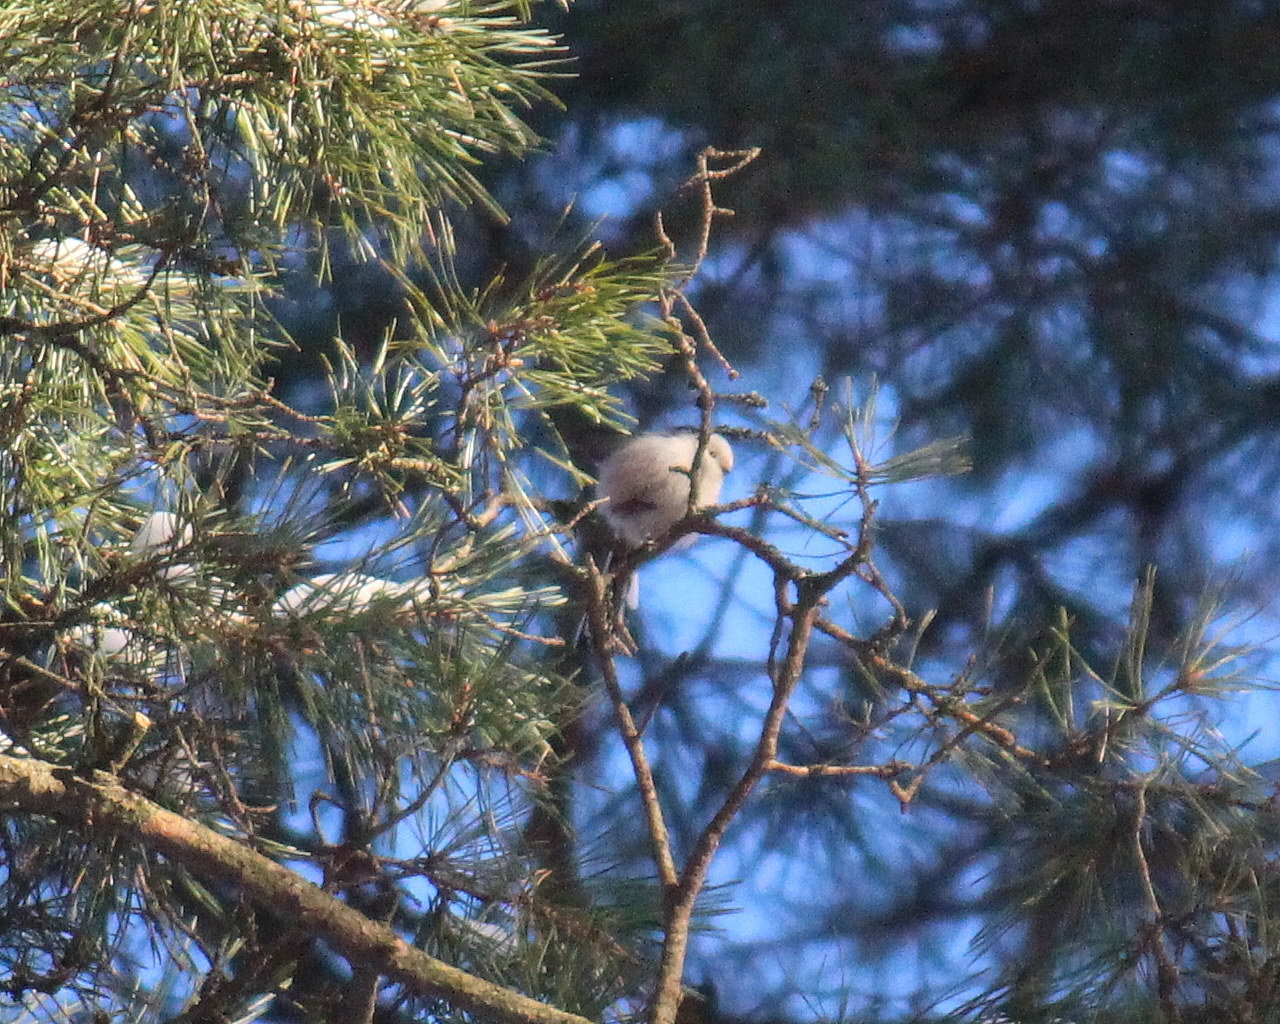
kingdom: Animalia
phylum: Chordata
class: Aves
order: Passeriformes
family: Aegithalidae
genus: Aegithalos
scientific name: Aegithalos caudatus
